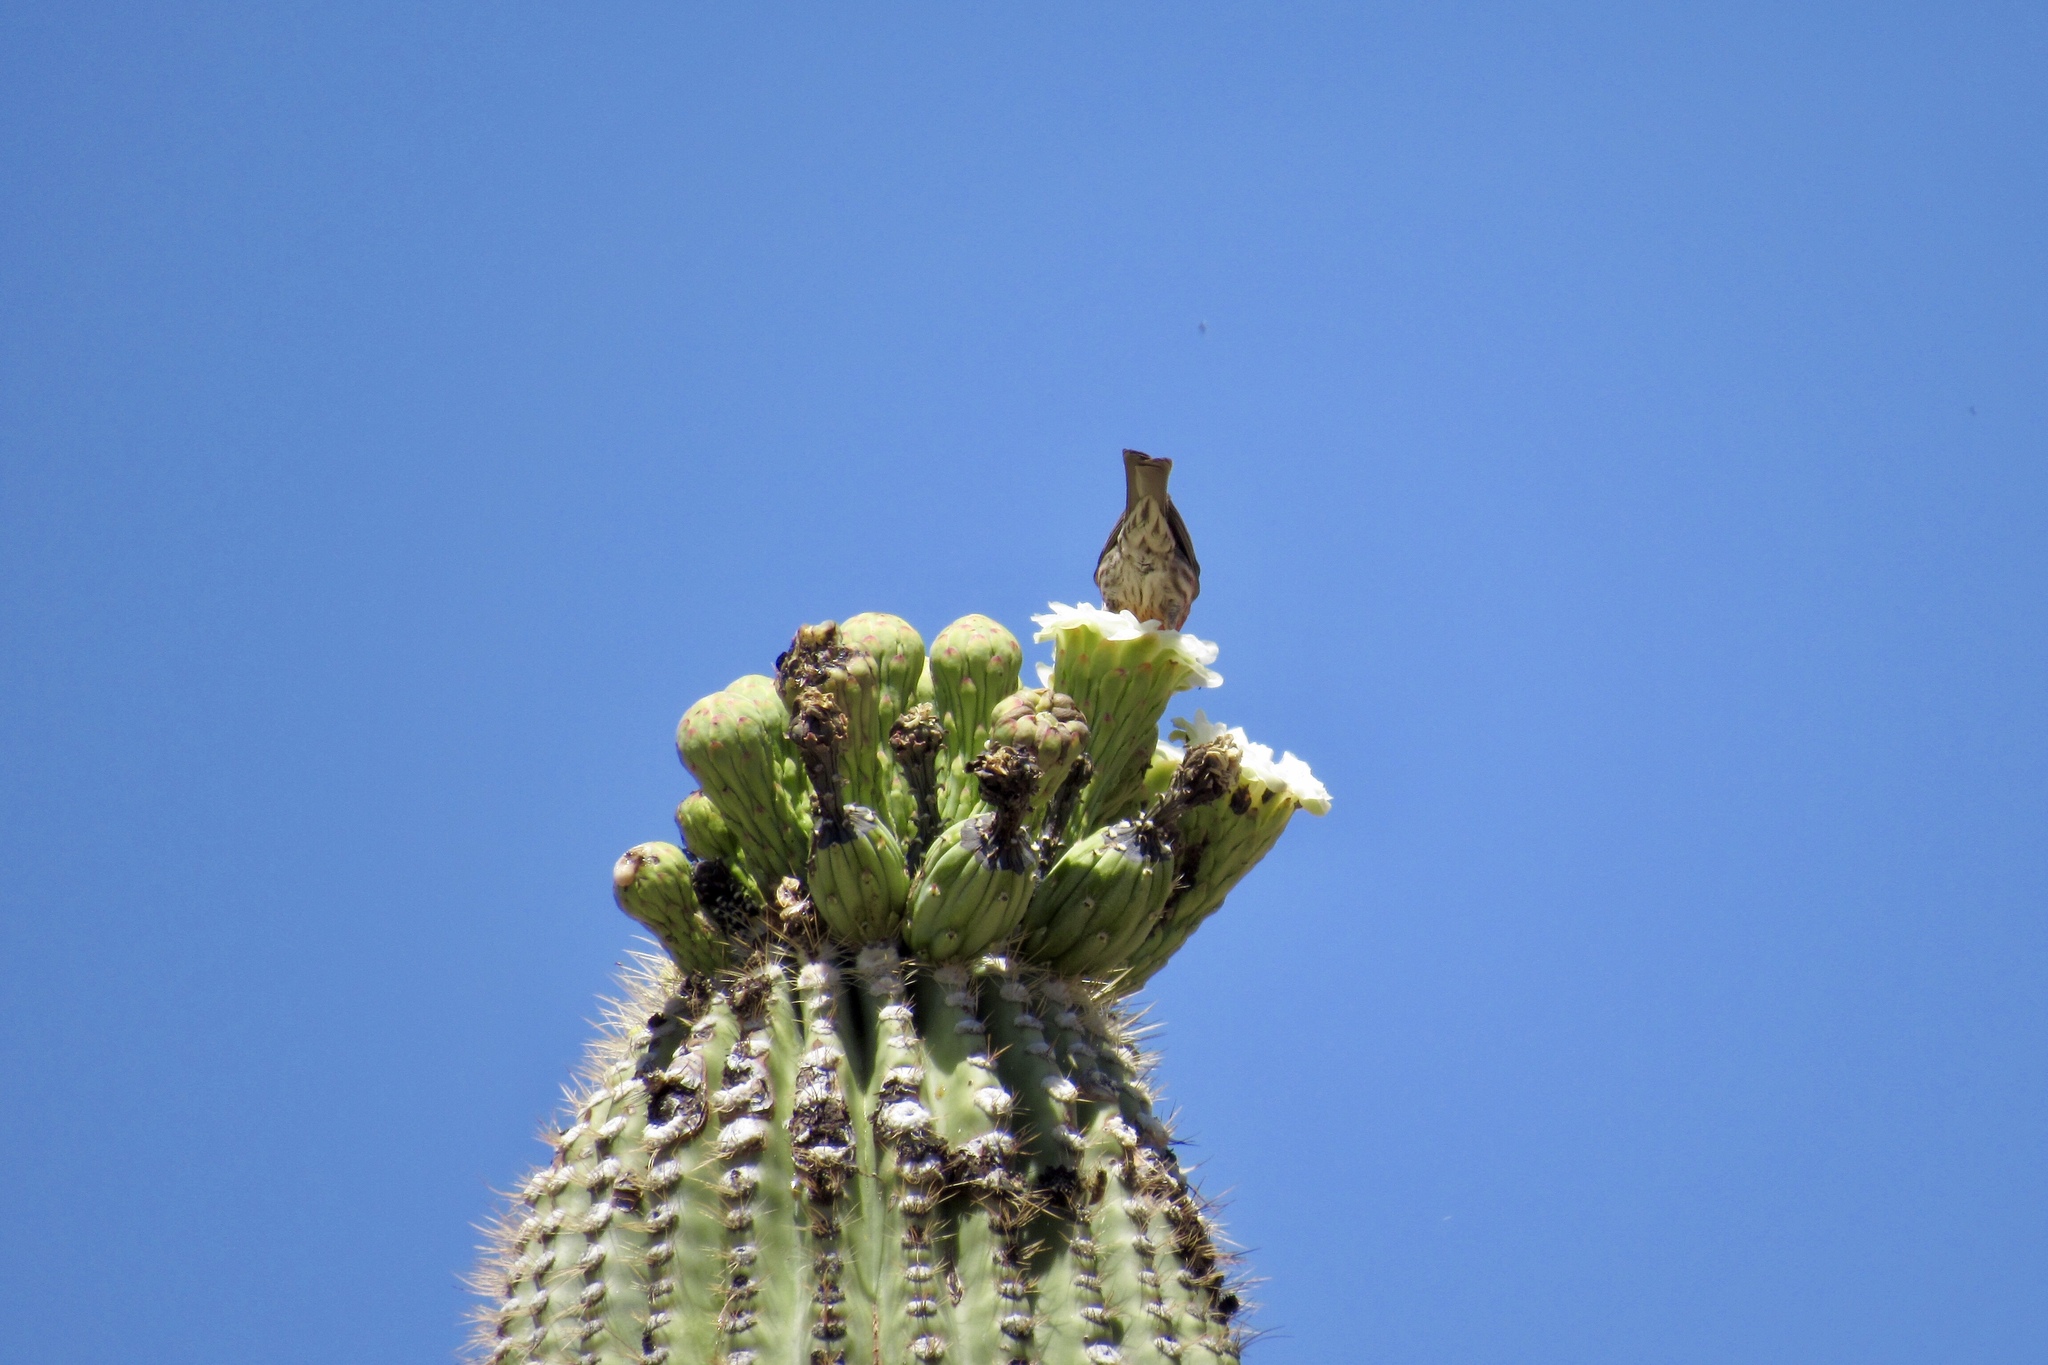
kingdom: Animalia
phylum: Chordata
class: Aves
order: Passeriformes
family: Fringillidae
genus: Haemorhous
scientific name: Haemorhous mexicanus
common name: House finch
